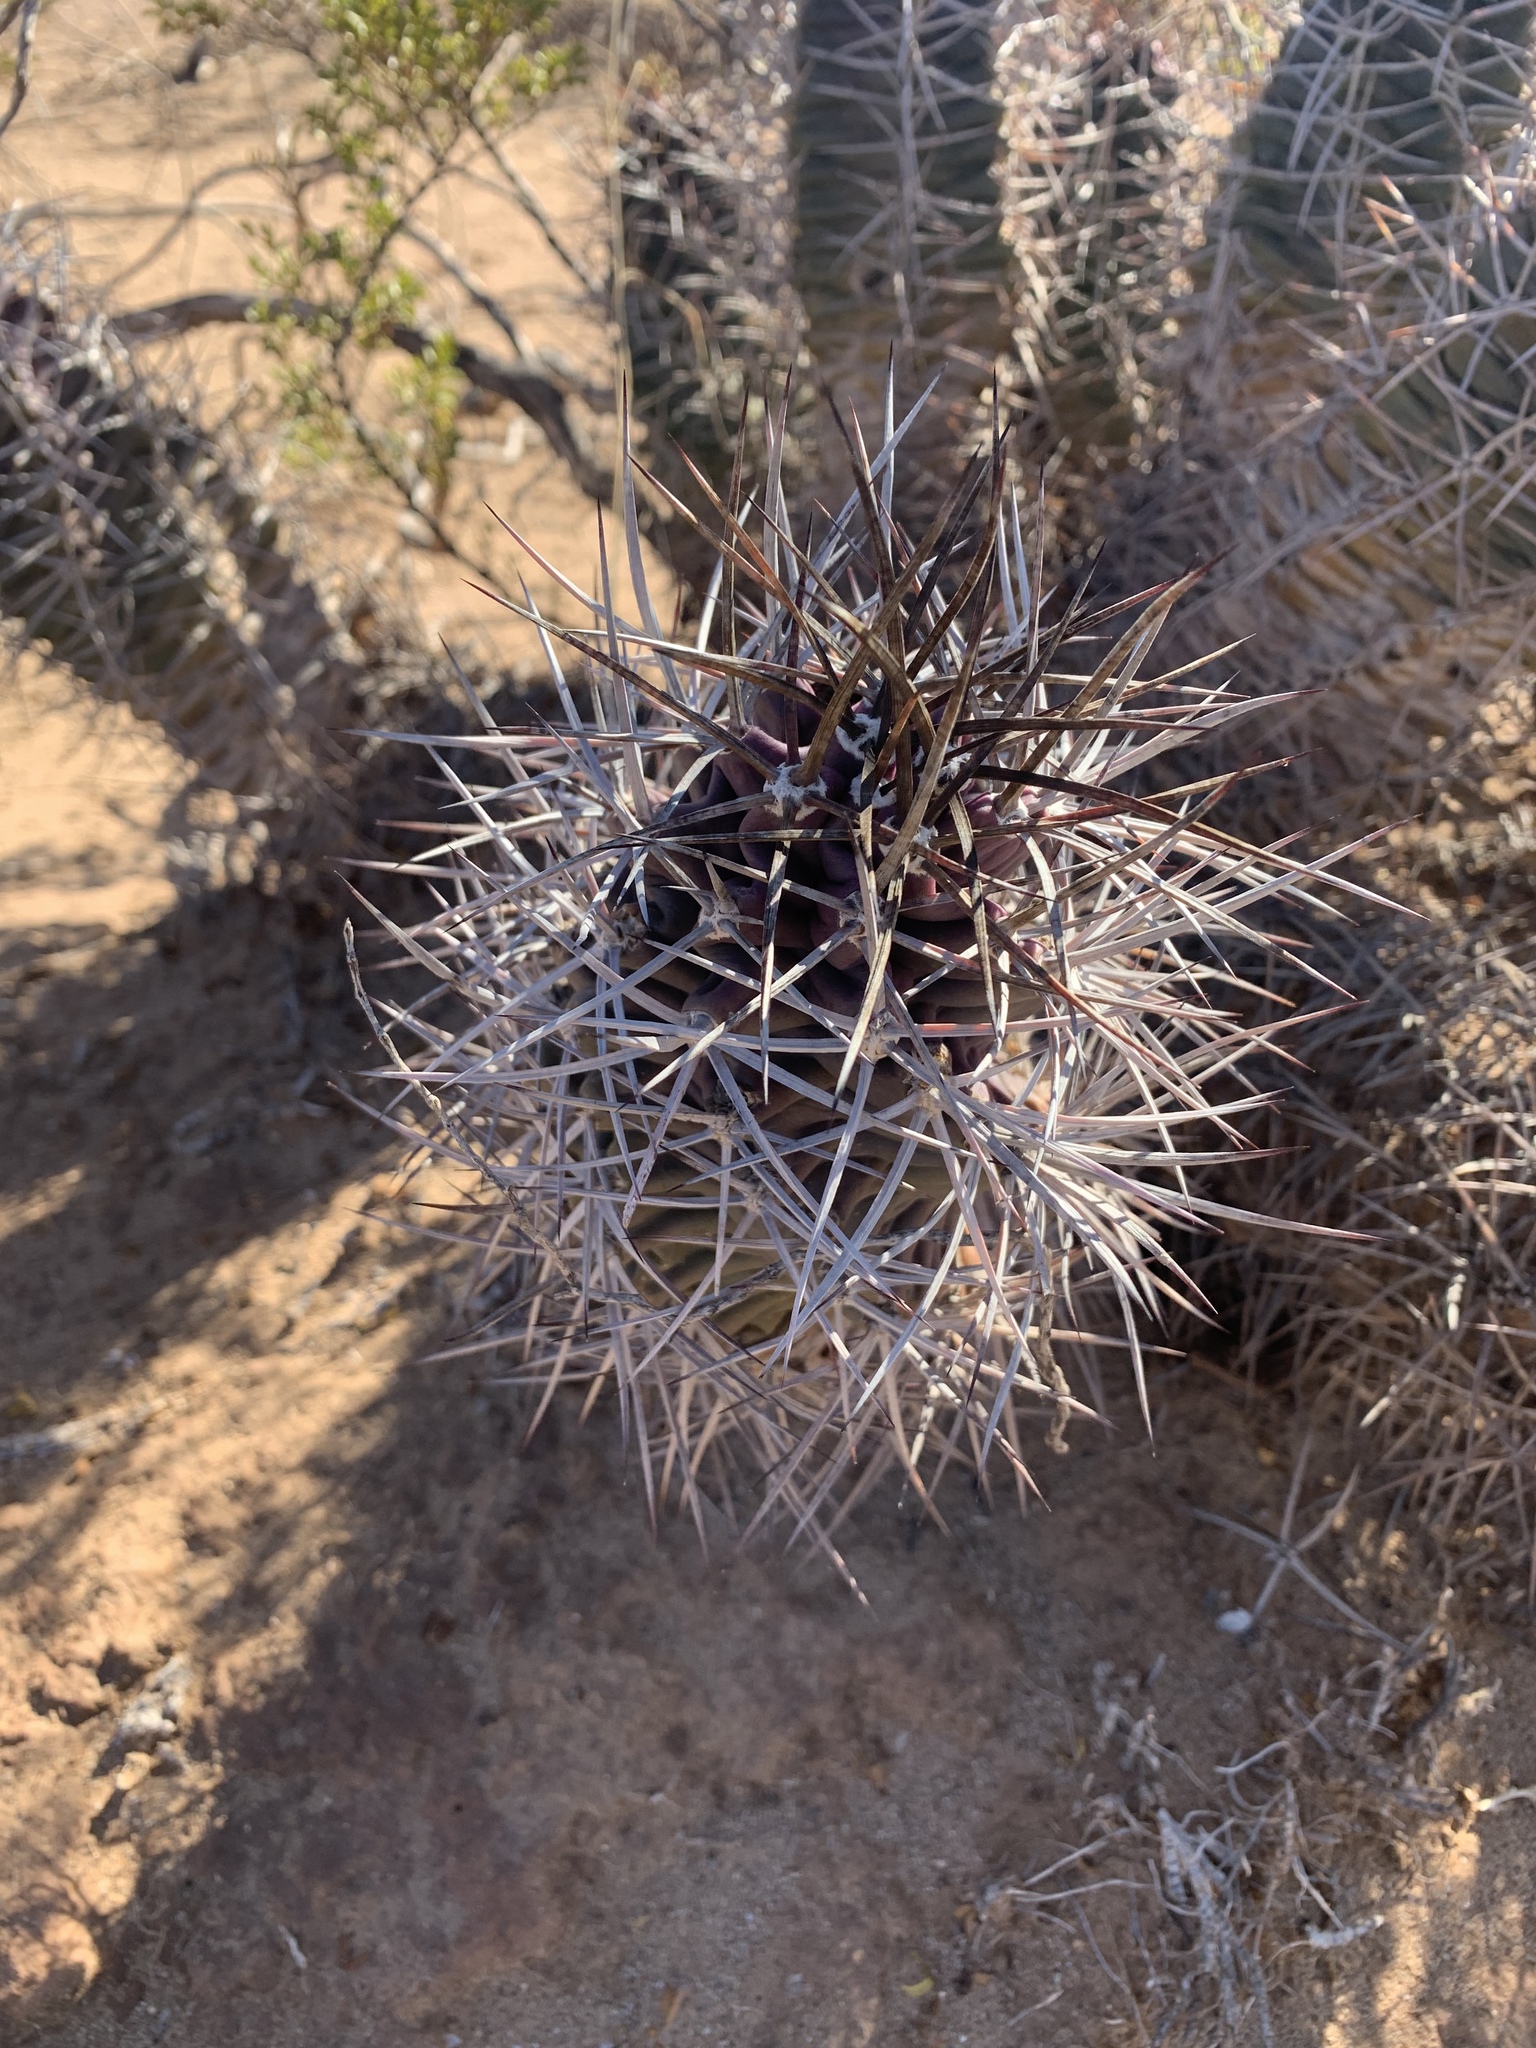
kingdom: Plantae
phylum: Tracheophyta
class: Magnoliopsida
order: Caryophyllales
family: Cactaceae
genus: Echinocereus
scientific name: Echinocereus triglochidiatus
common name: Claretcup hedgehog
